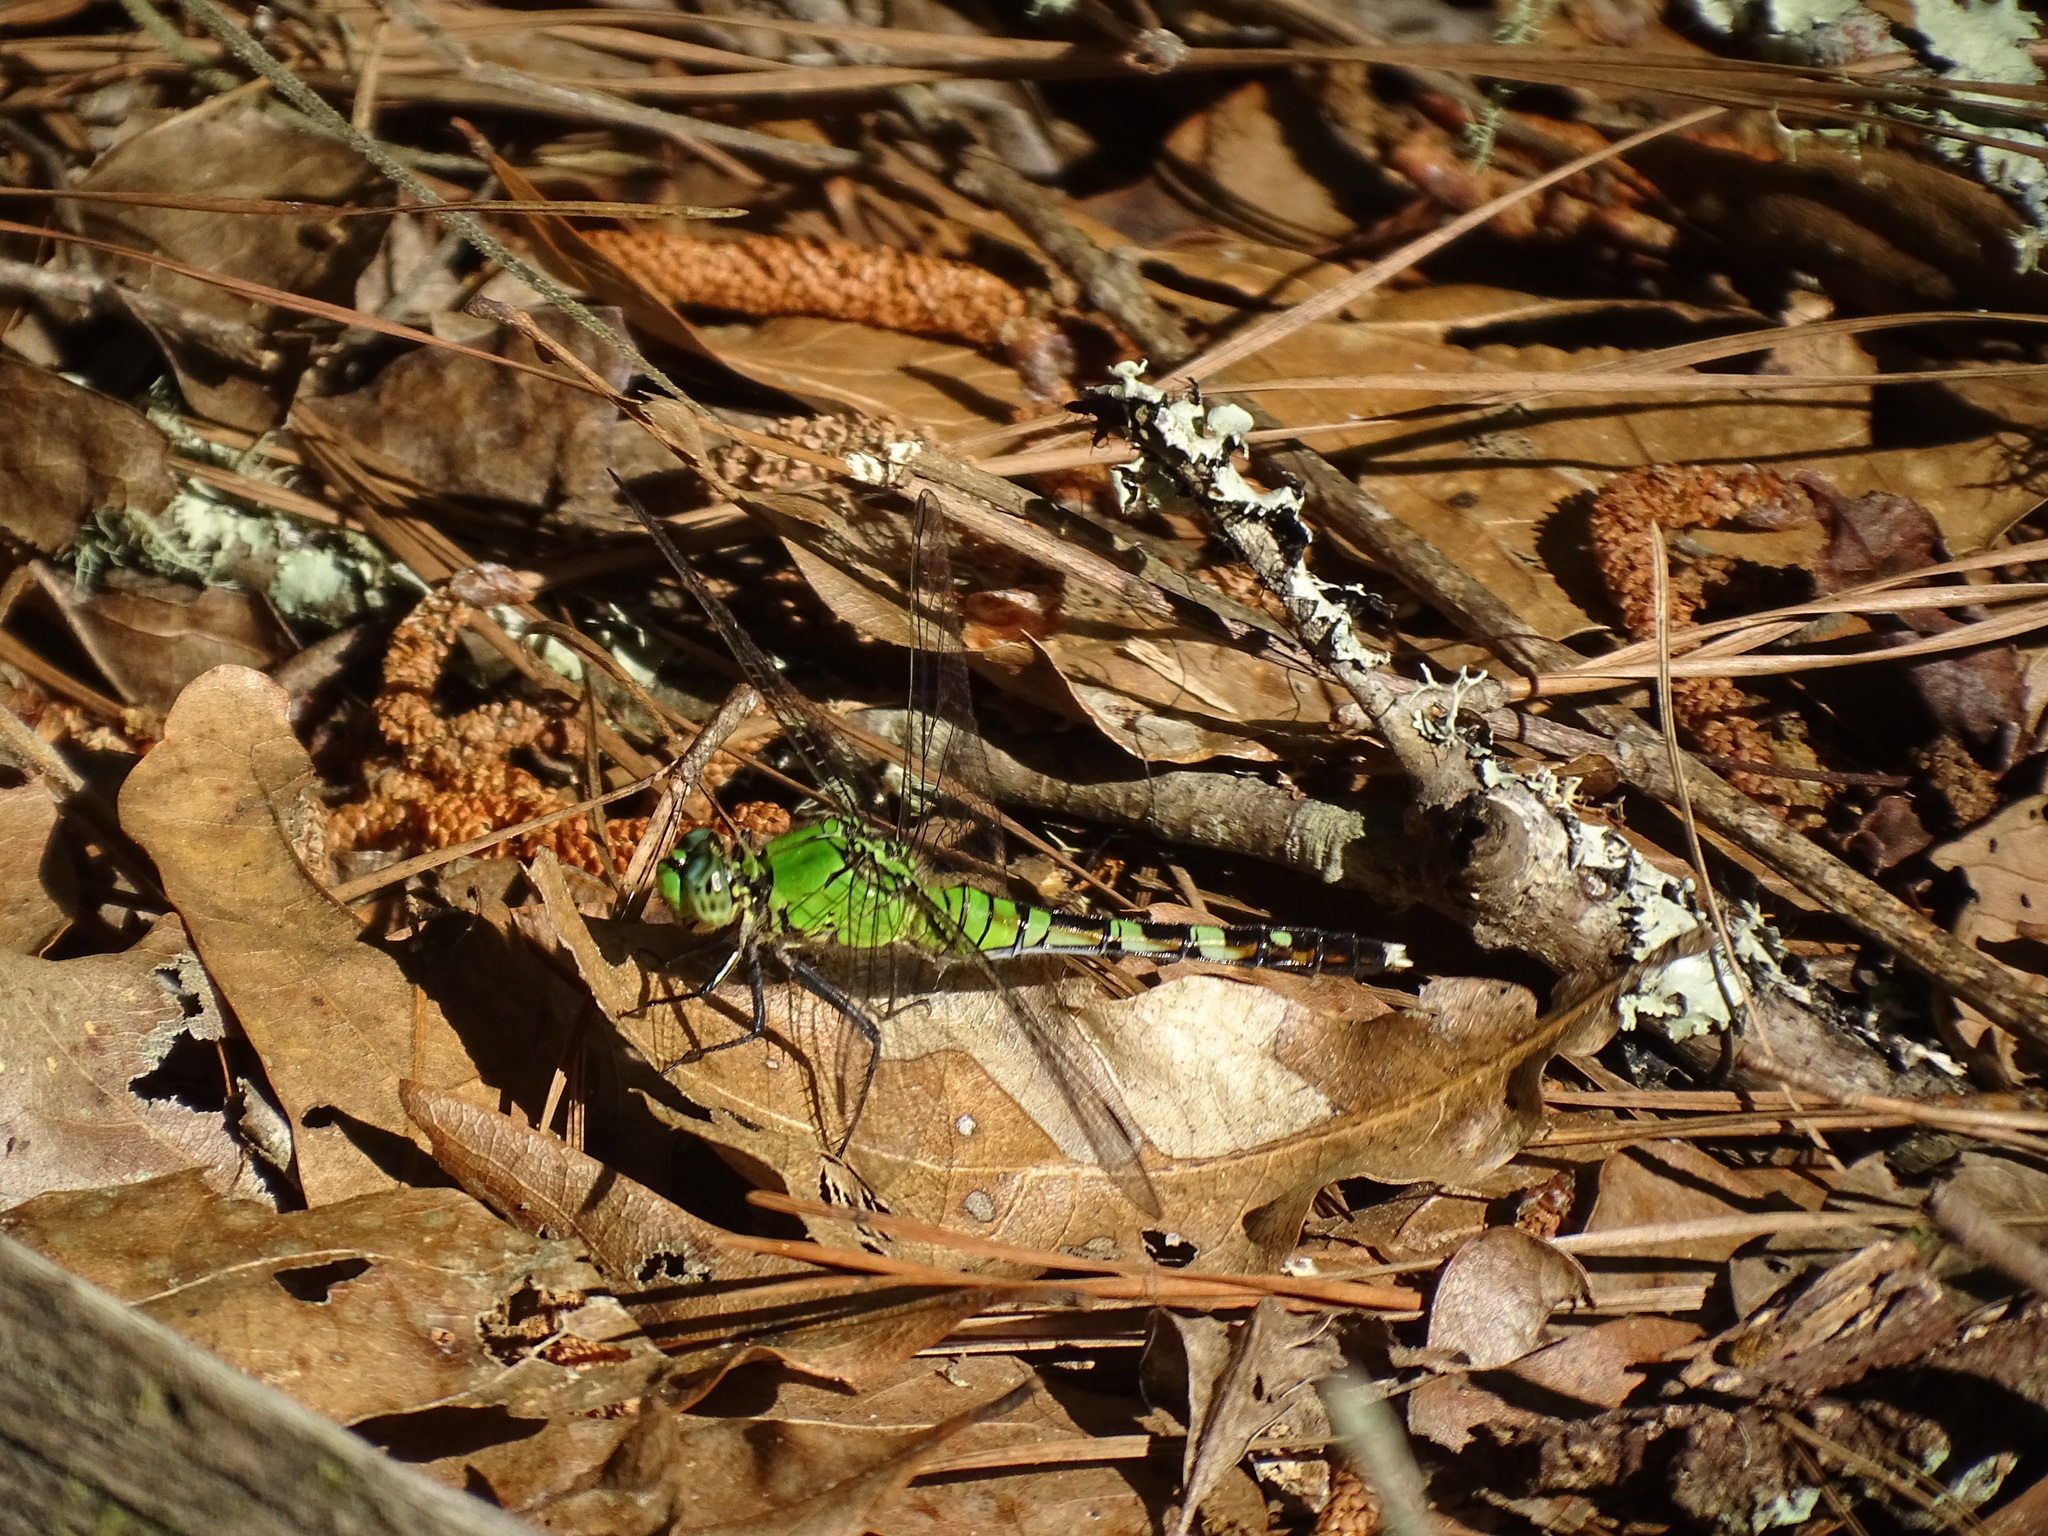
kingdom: Animalia
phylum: Arthropoda
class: Insecta
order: Odonata
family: Libellulidae
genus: Erythemis
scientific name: Erythemis simplicicollis
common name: Eastern pondhawk
